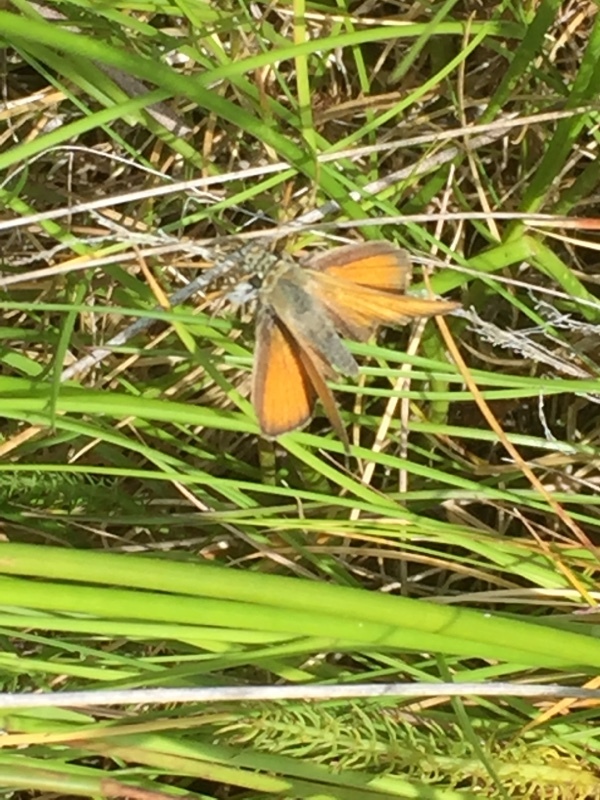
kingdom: Animalia
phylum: Arthropoda
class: Insecta
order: Lepidoptera
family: Hesperiidae
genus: Thymelicus
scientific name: Thymelicus sylvestris
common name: Small skipper
